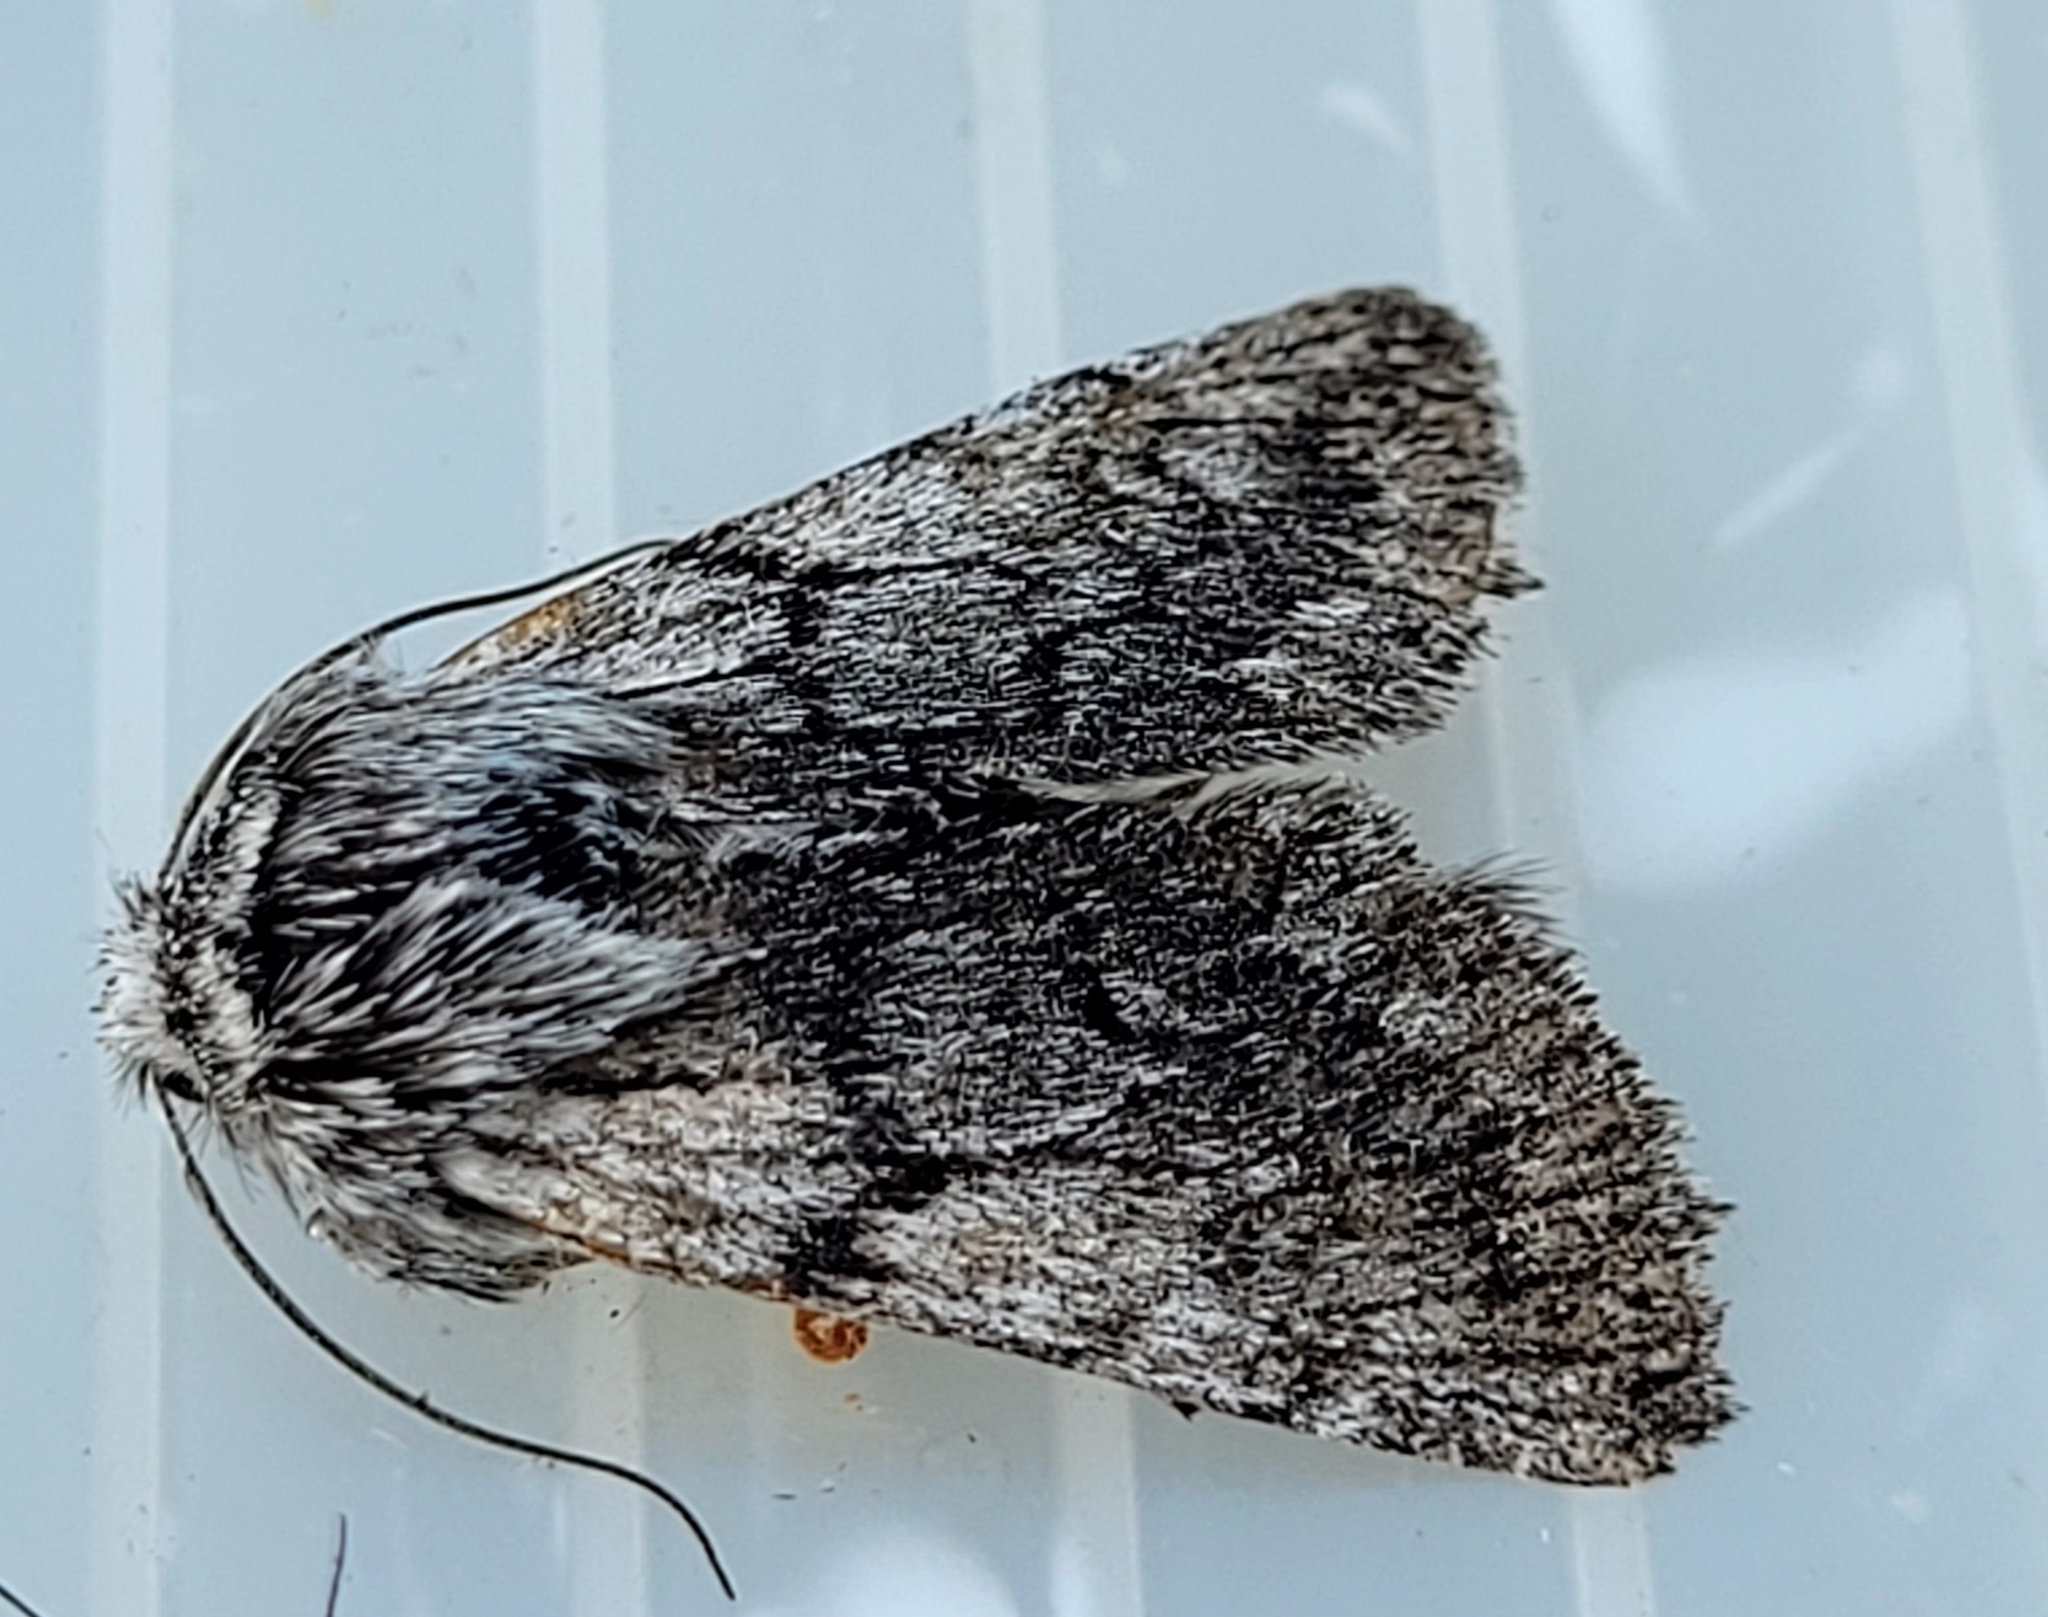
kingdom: Animalia
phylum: Arthropoda
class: Insecta
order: Lepidoptera
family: Noctuidae
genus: Pleromelloida
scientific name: Pleromelloida conserta
